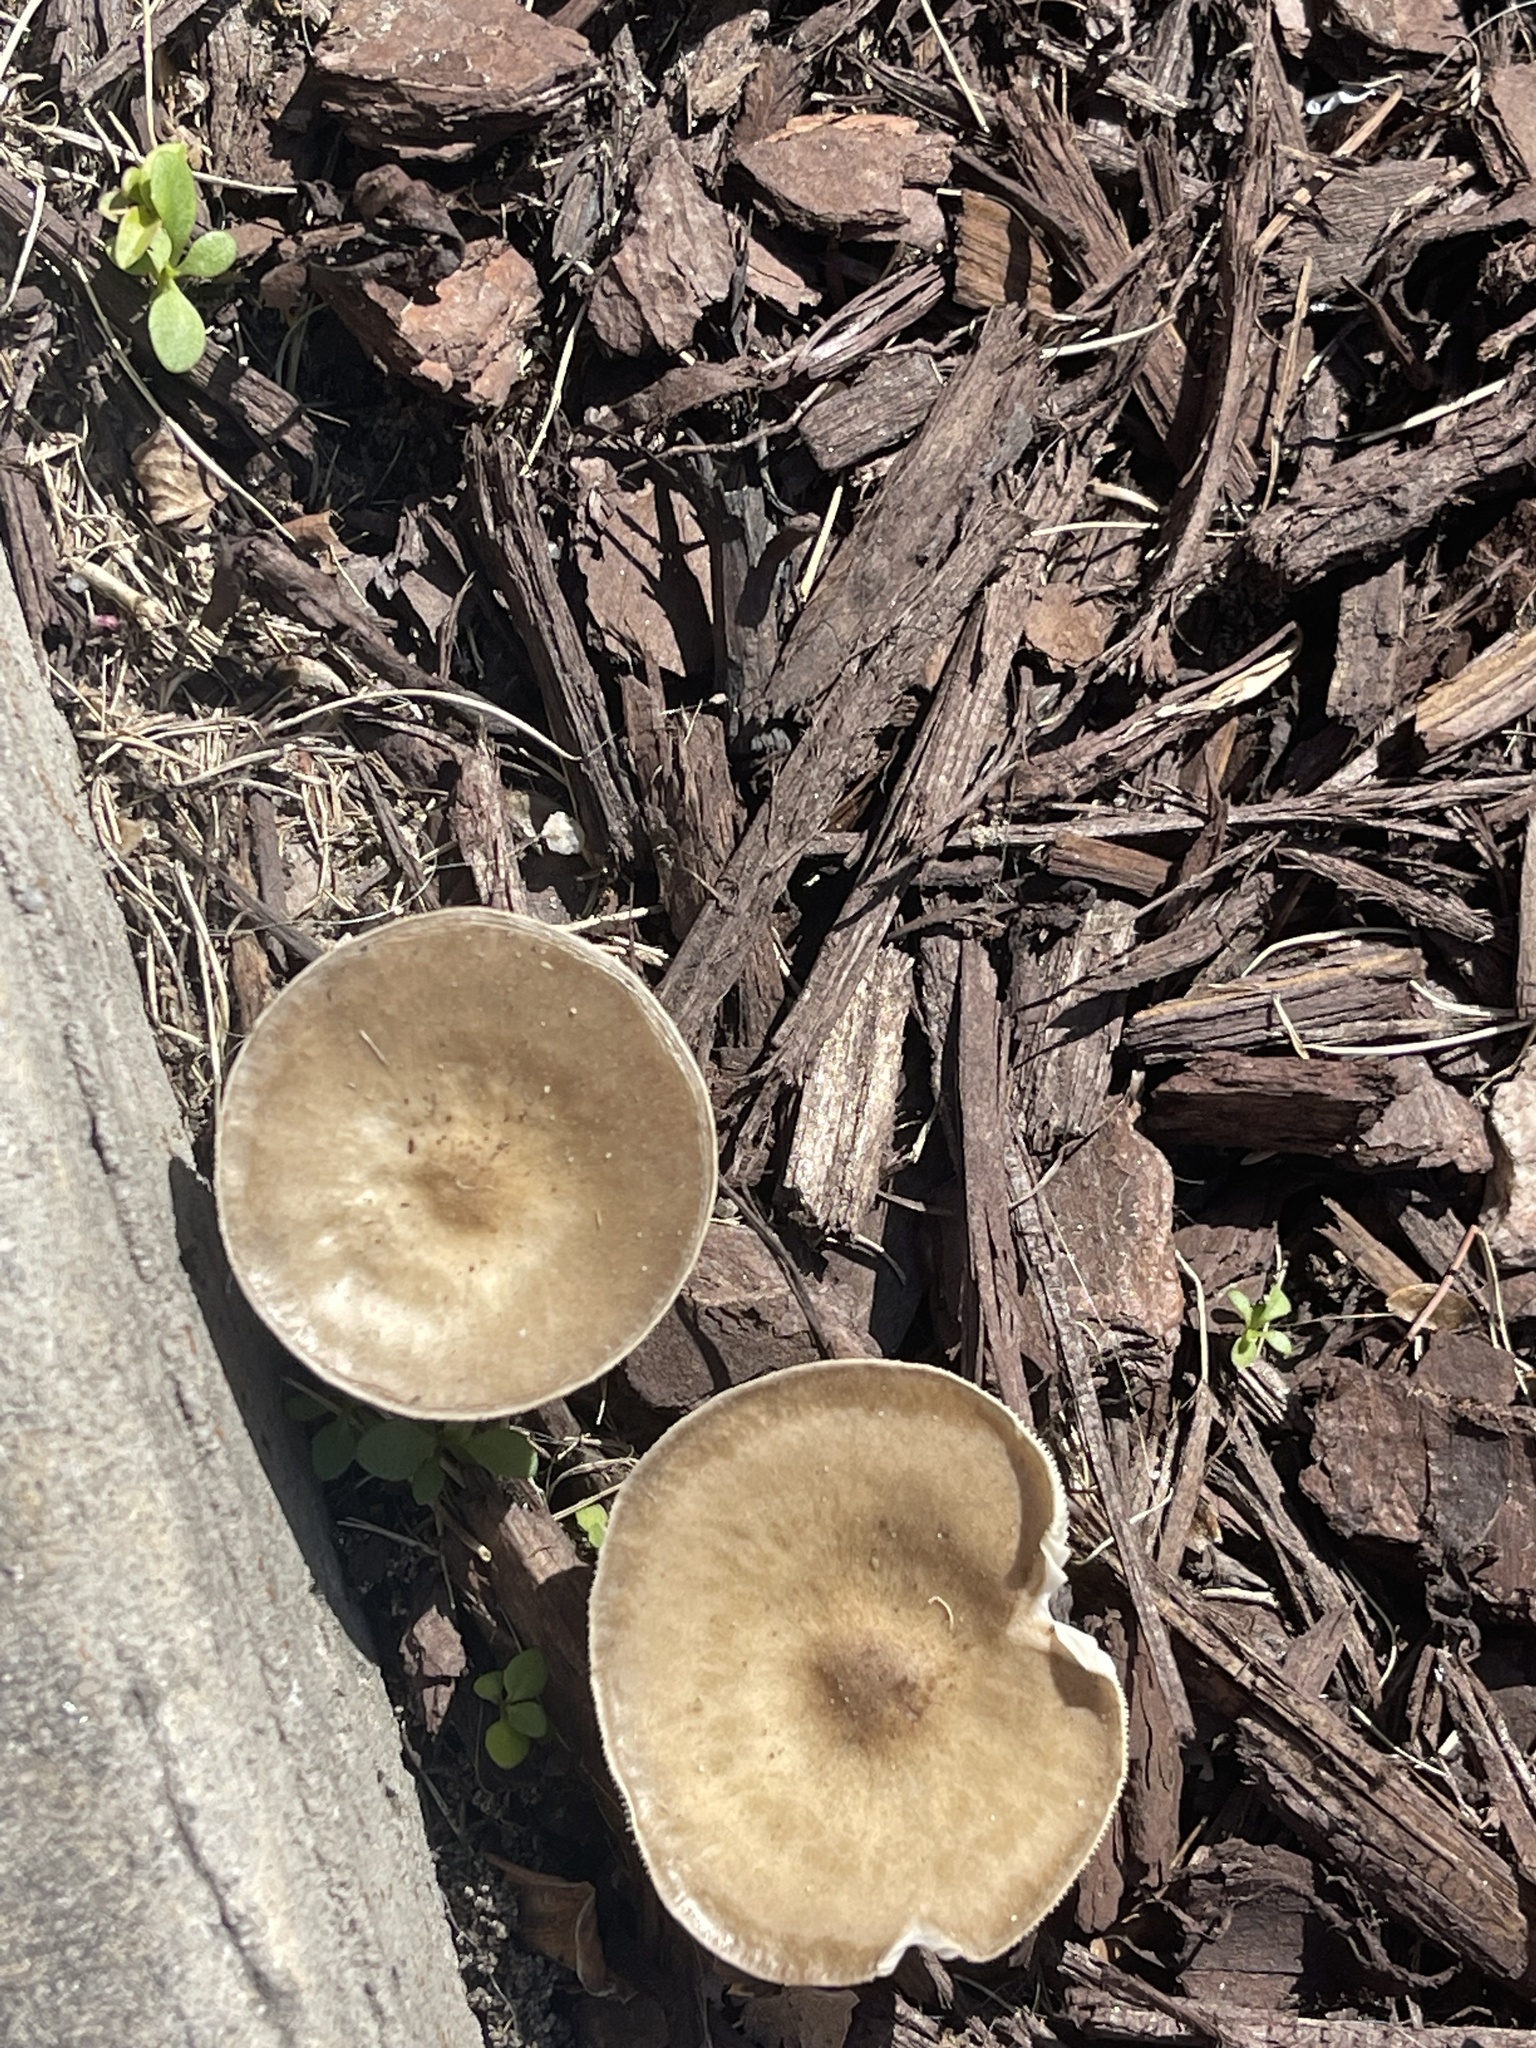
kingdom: Fungi
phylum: Basidiomycota
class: Agaricomycetes
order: Agaricales
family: Pluteaceae
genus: Pluteus
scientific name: Pluteus cervinus
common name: Deer shield
